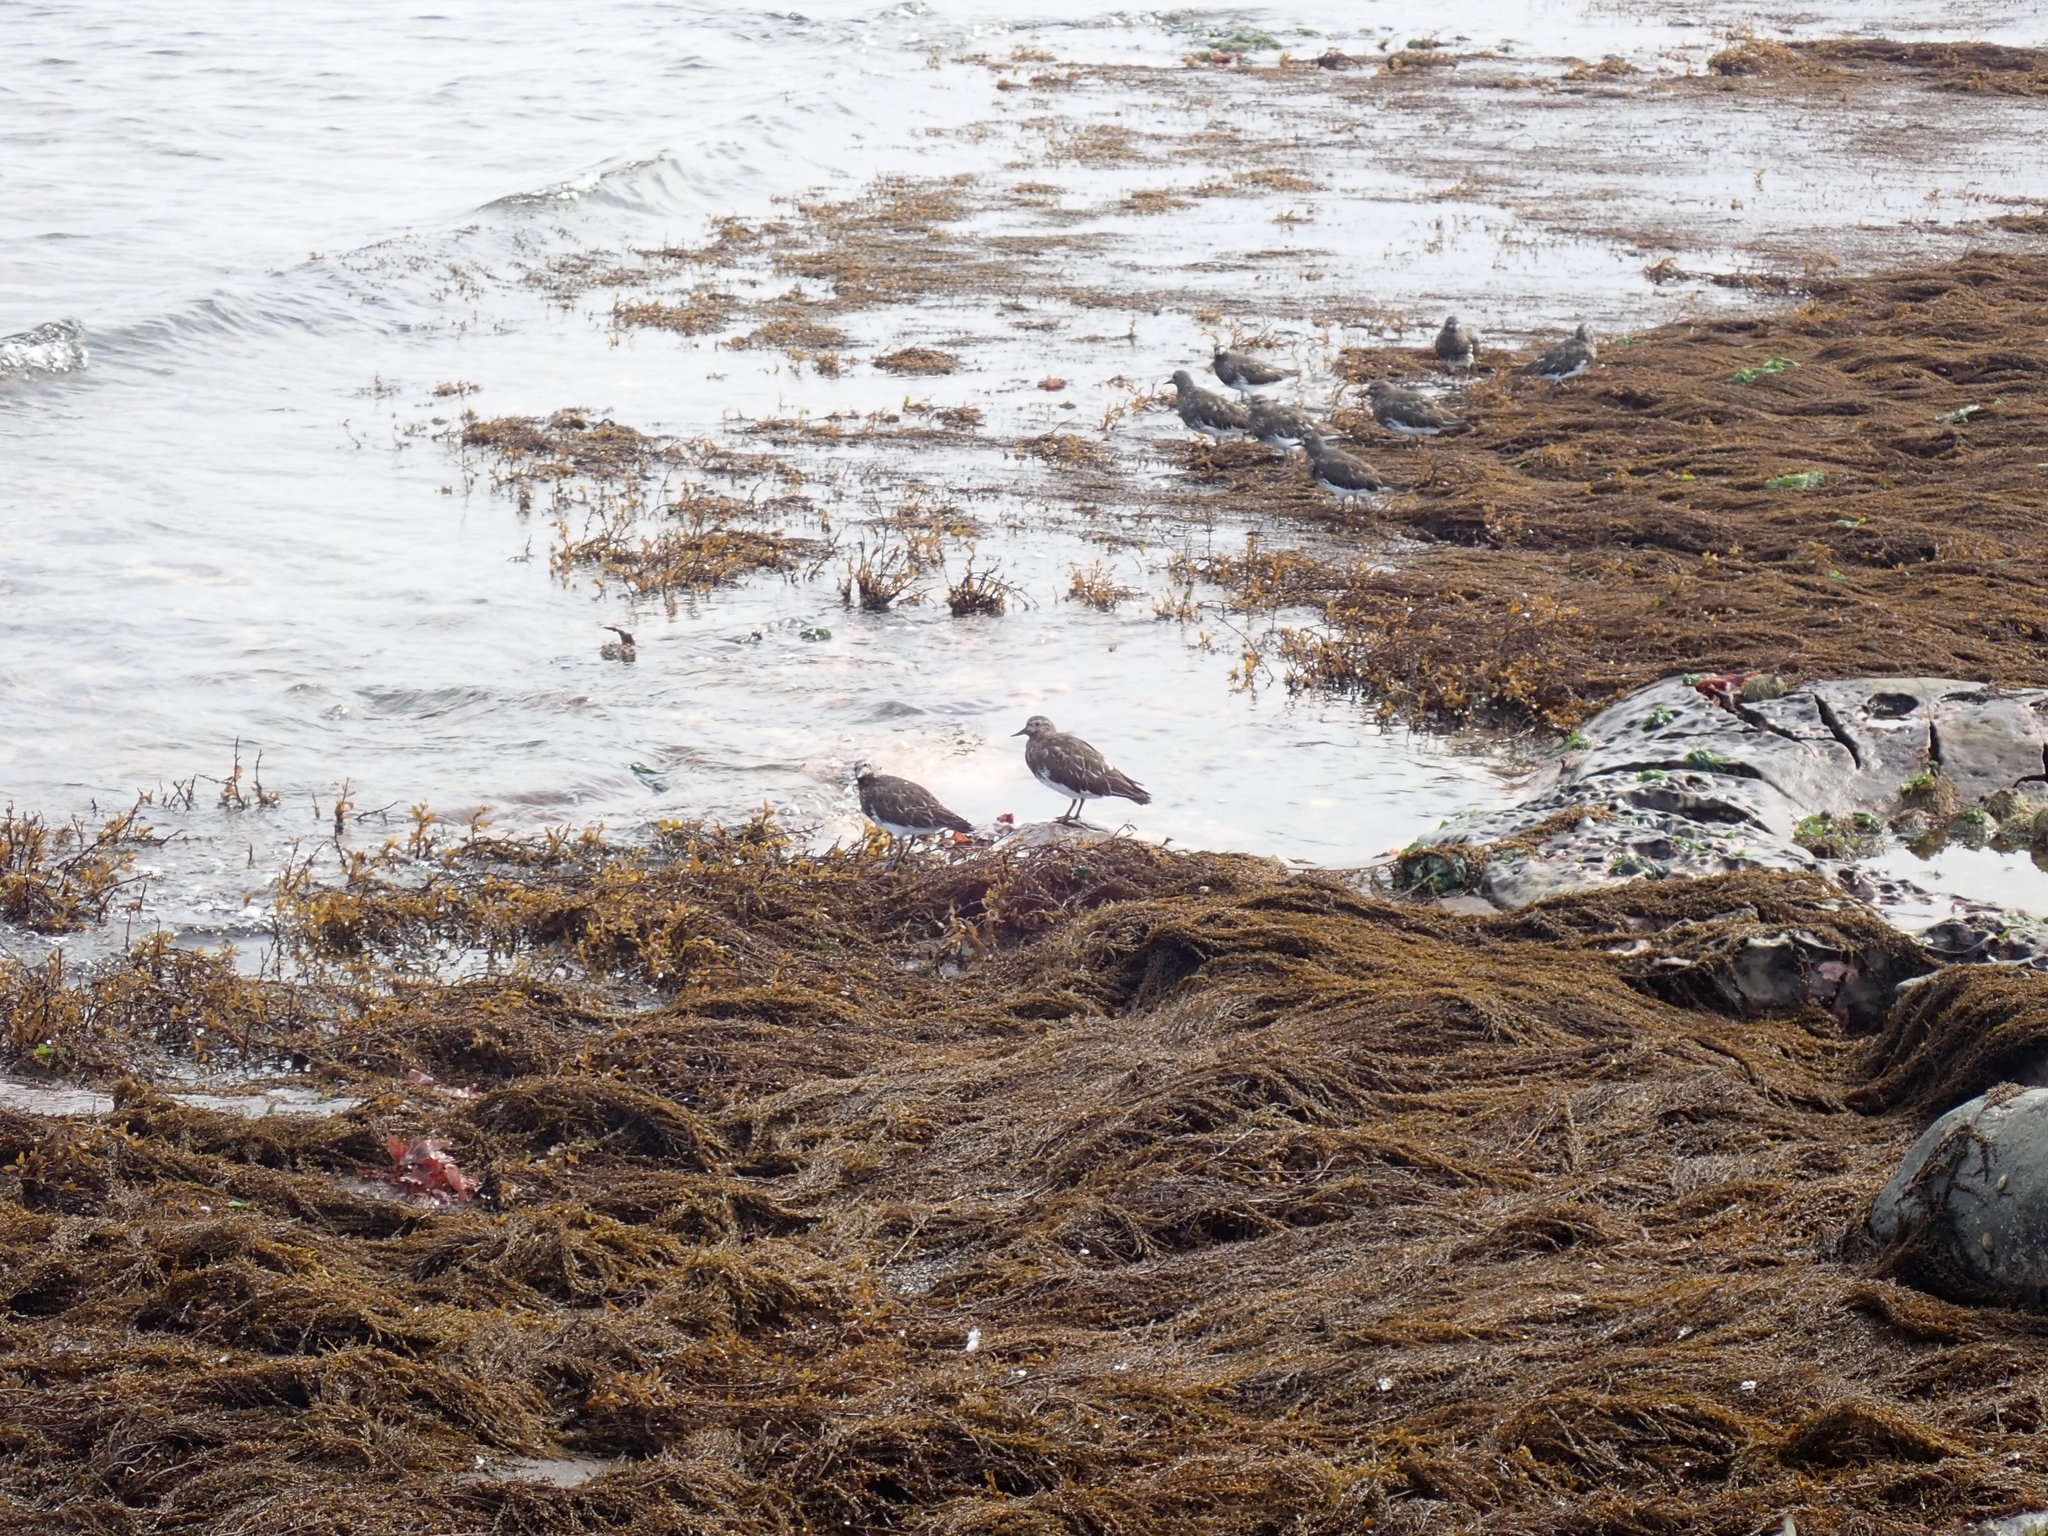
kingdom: Animalia
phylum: Chordata
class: Aves
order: Charadriiformes
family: Scolopacidae
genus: Arenaria
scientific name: Arenaria melanocephala
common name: Black turnstone
